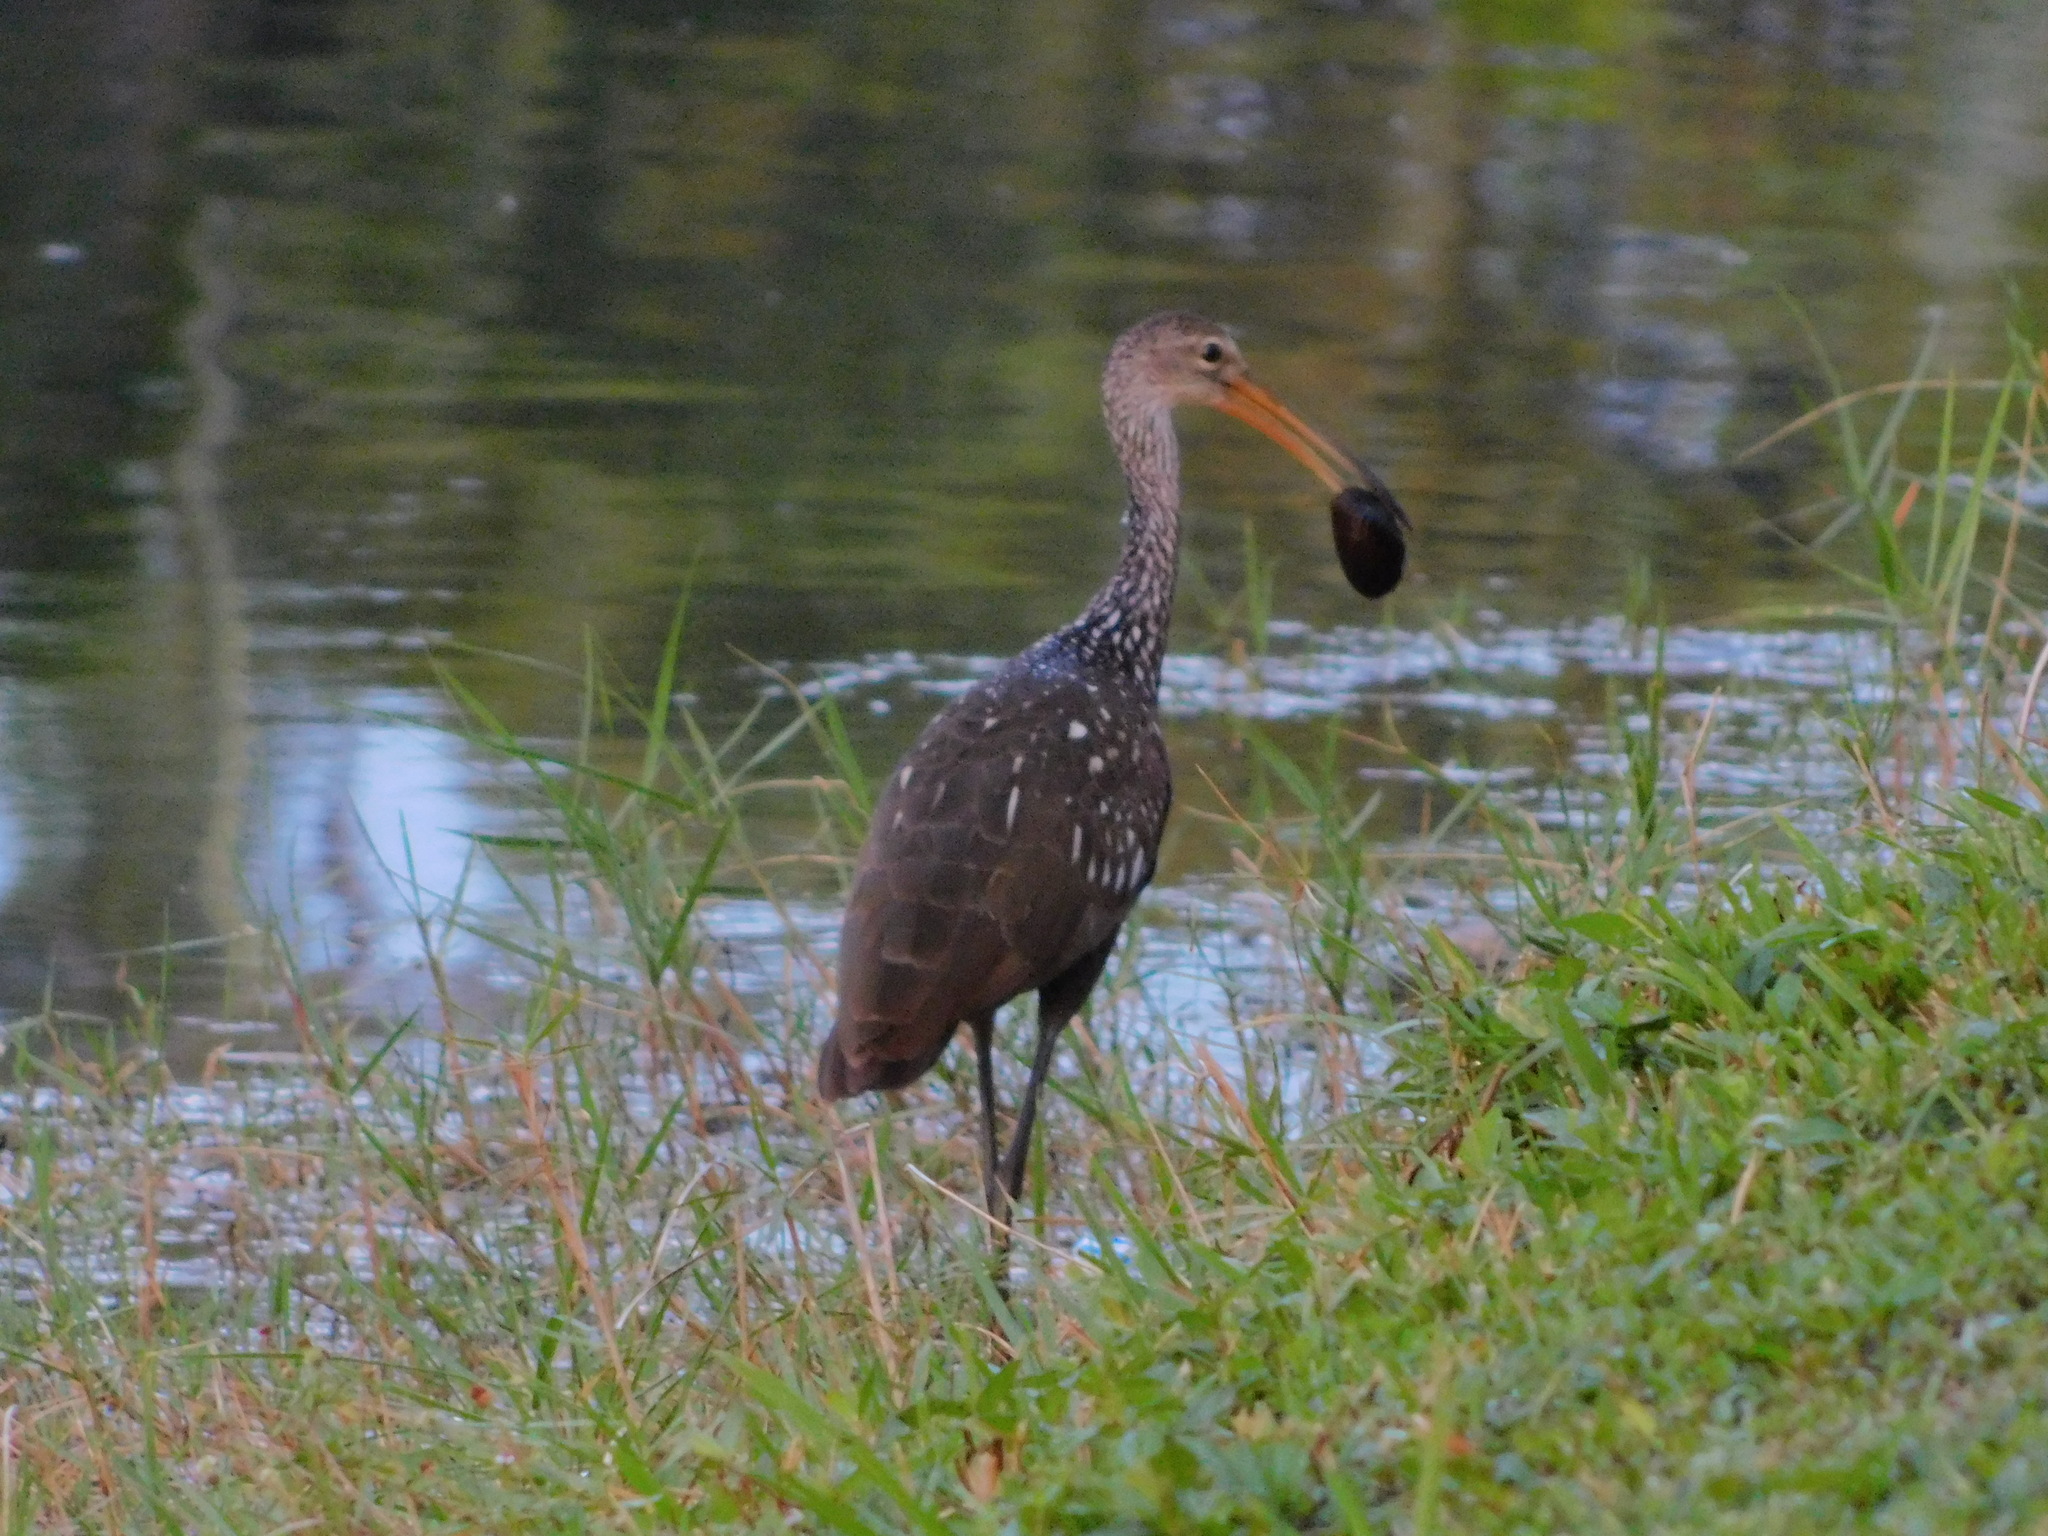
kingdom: Animalia
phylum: Chordata
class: Aves
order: Gruiformes
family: Aramidae
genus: Aramus
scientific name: Aramus guarauna
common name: Limpkin
